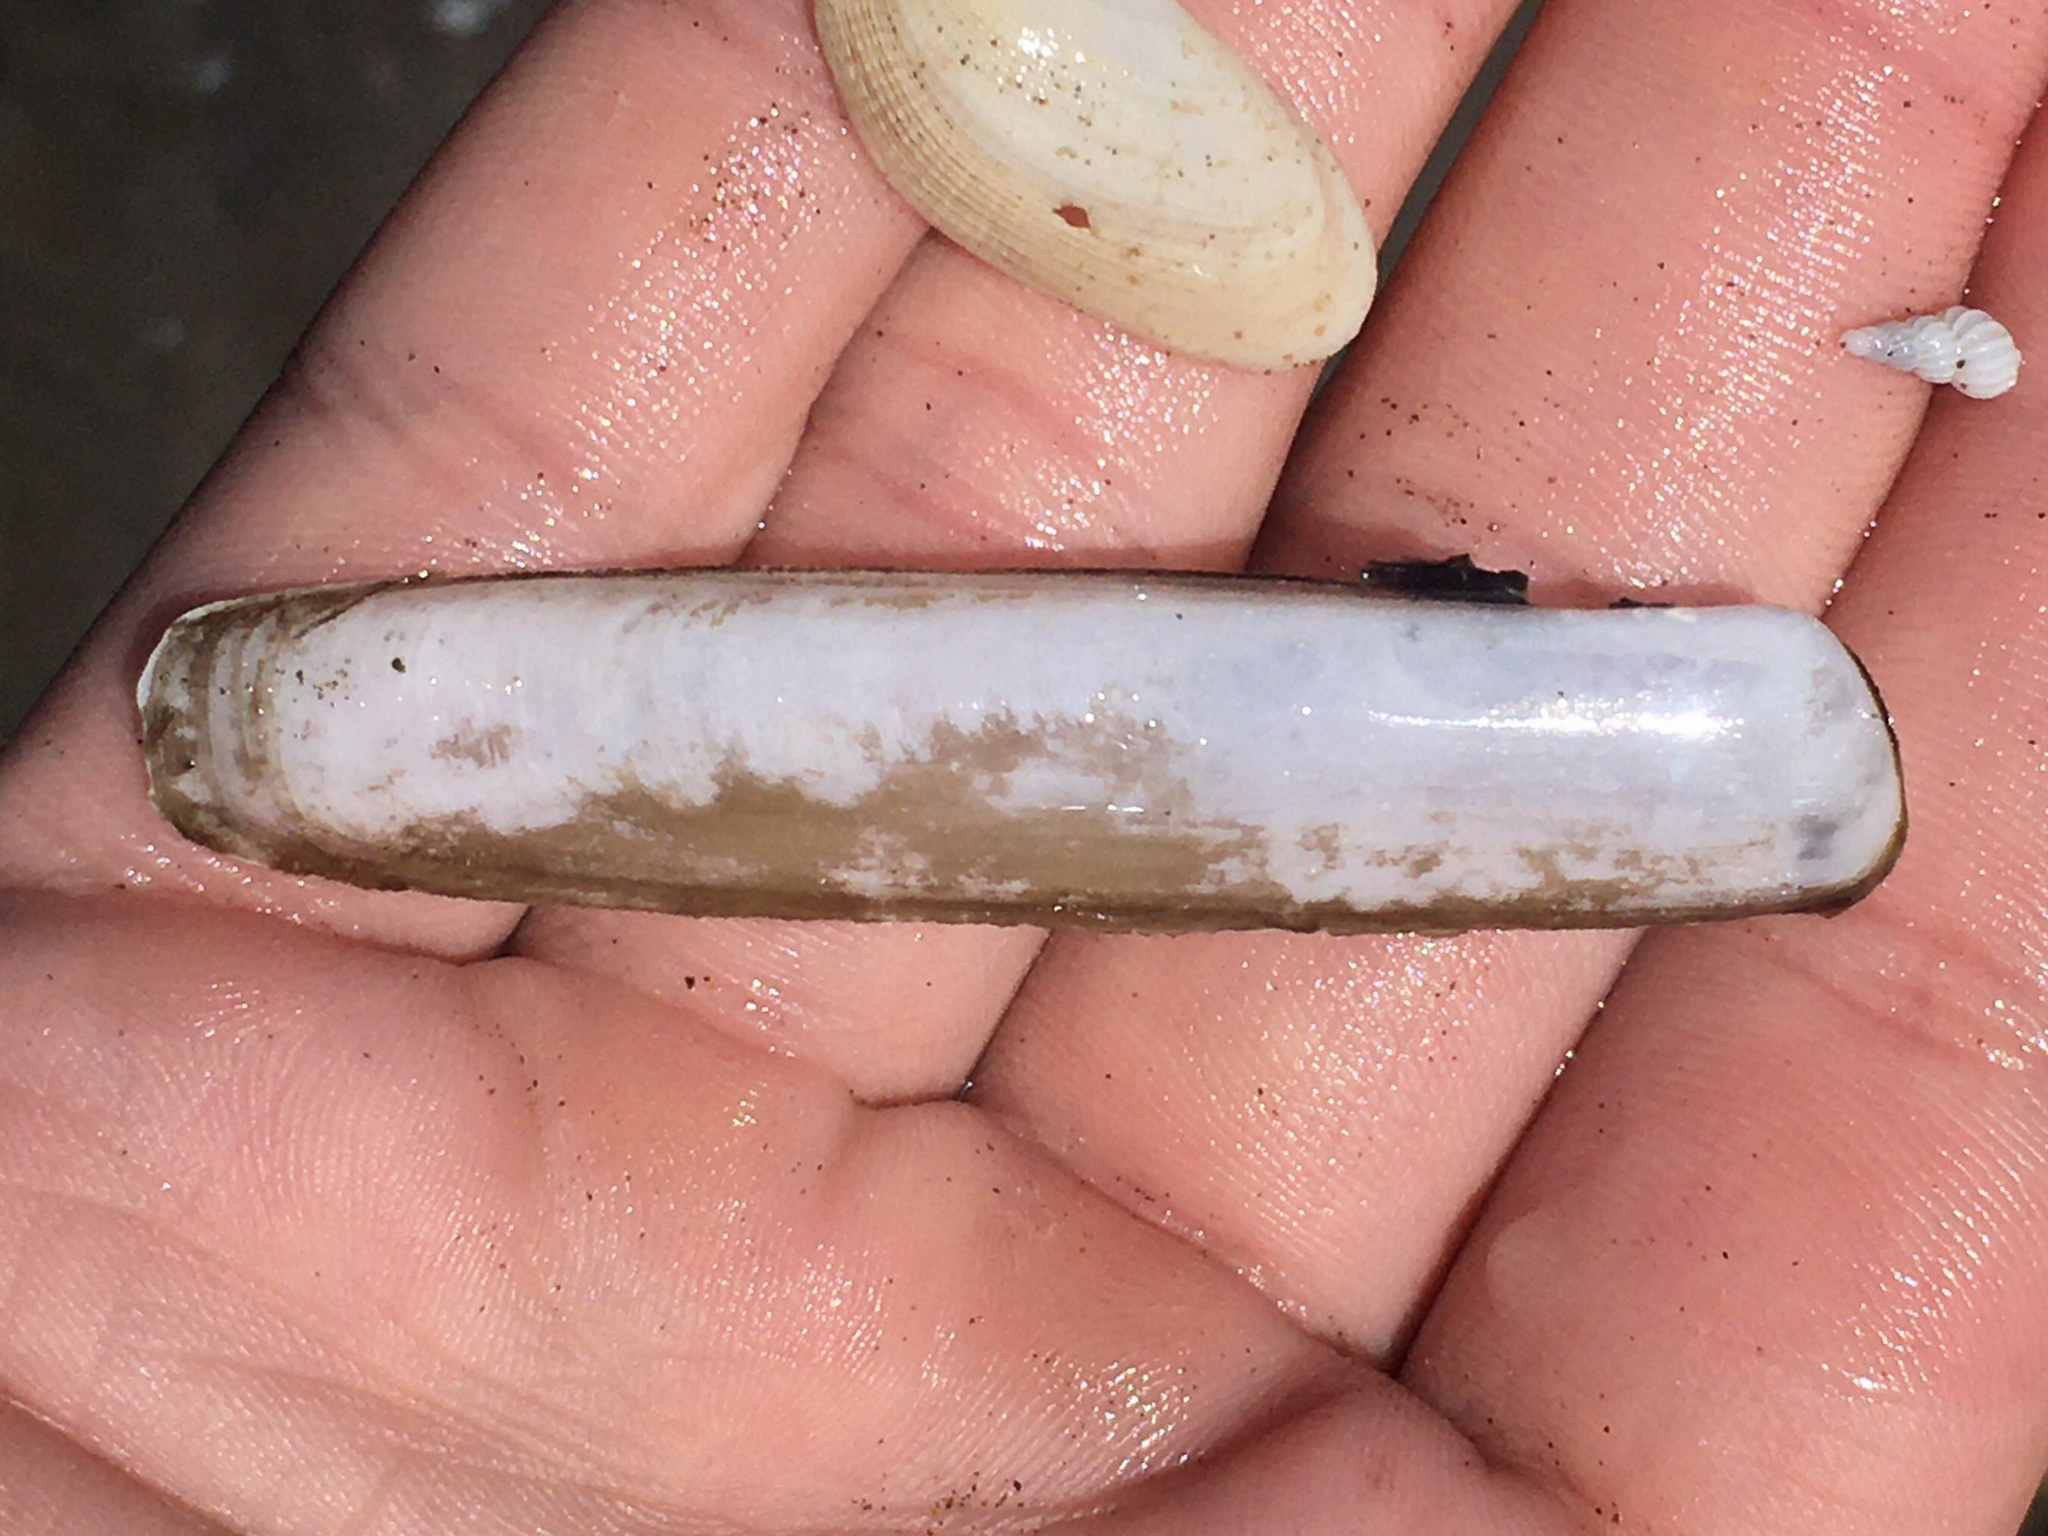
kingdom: Animalia
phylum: Mollusca
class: Bivalvia
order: Adapedonta
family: Solenidae
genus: Solen
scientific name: Solen thuelchus
